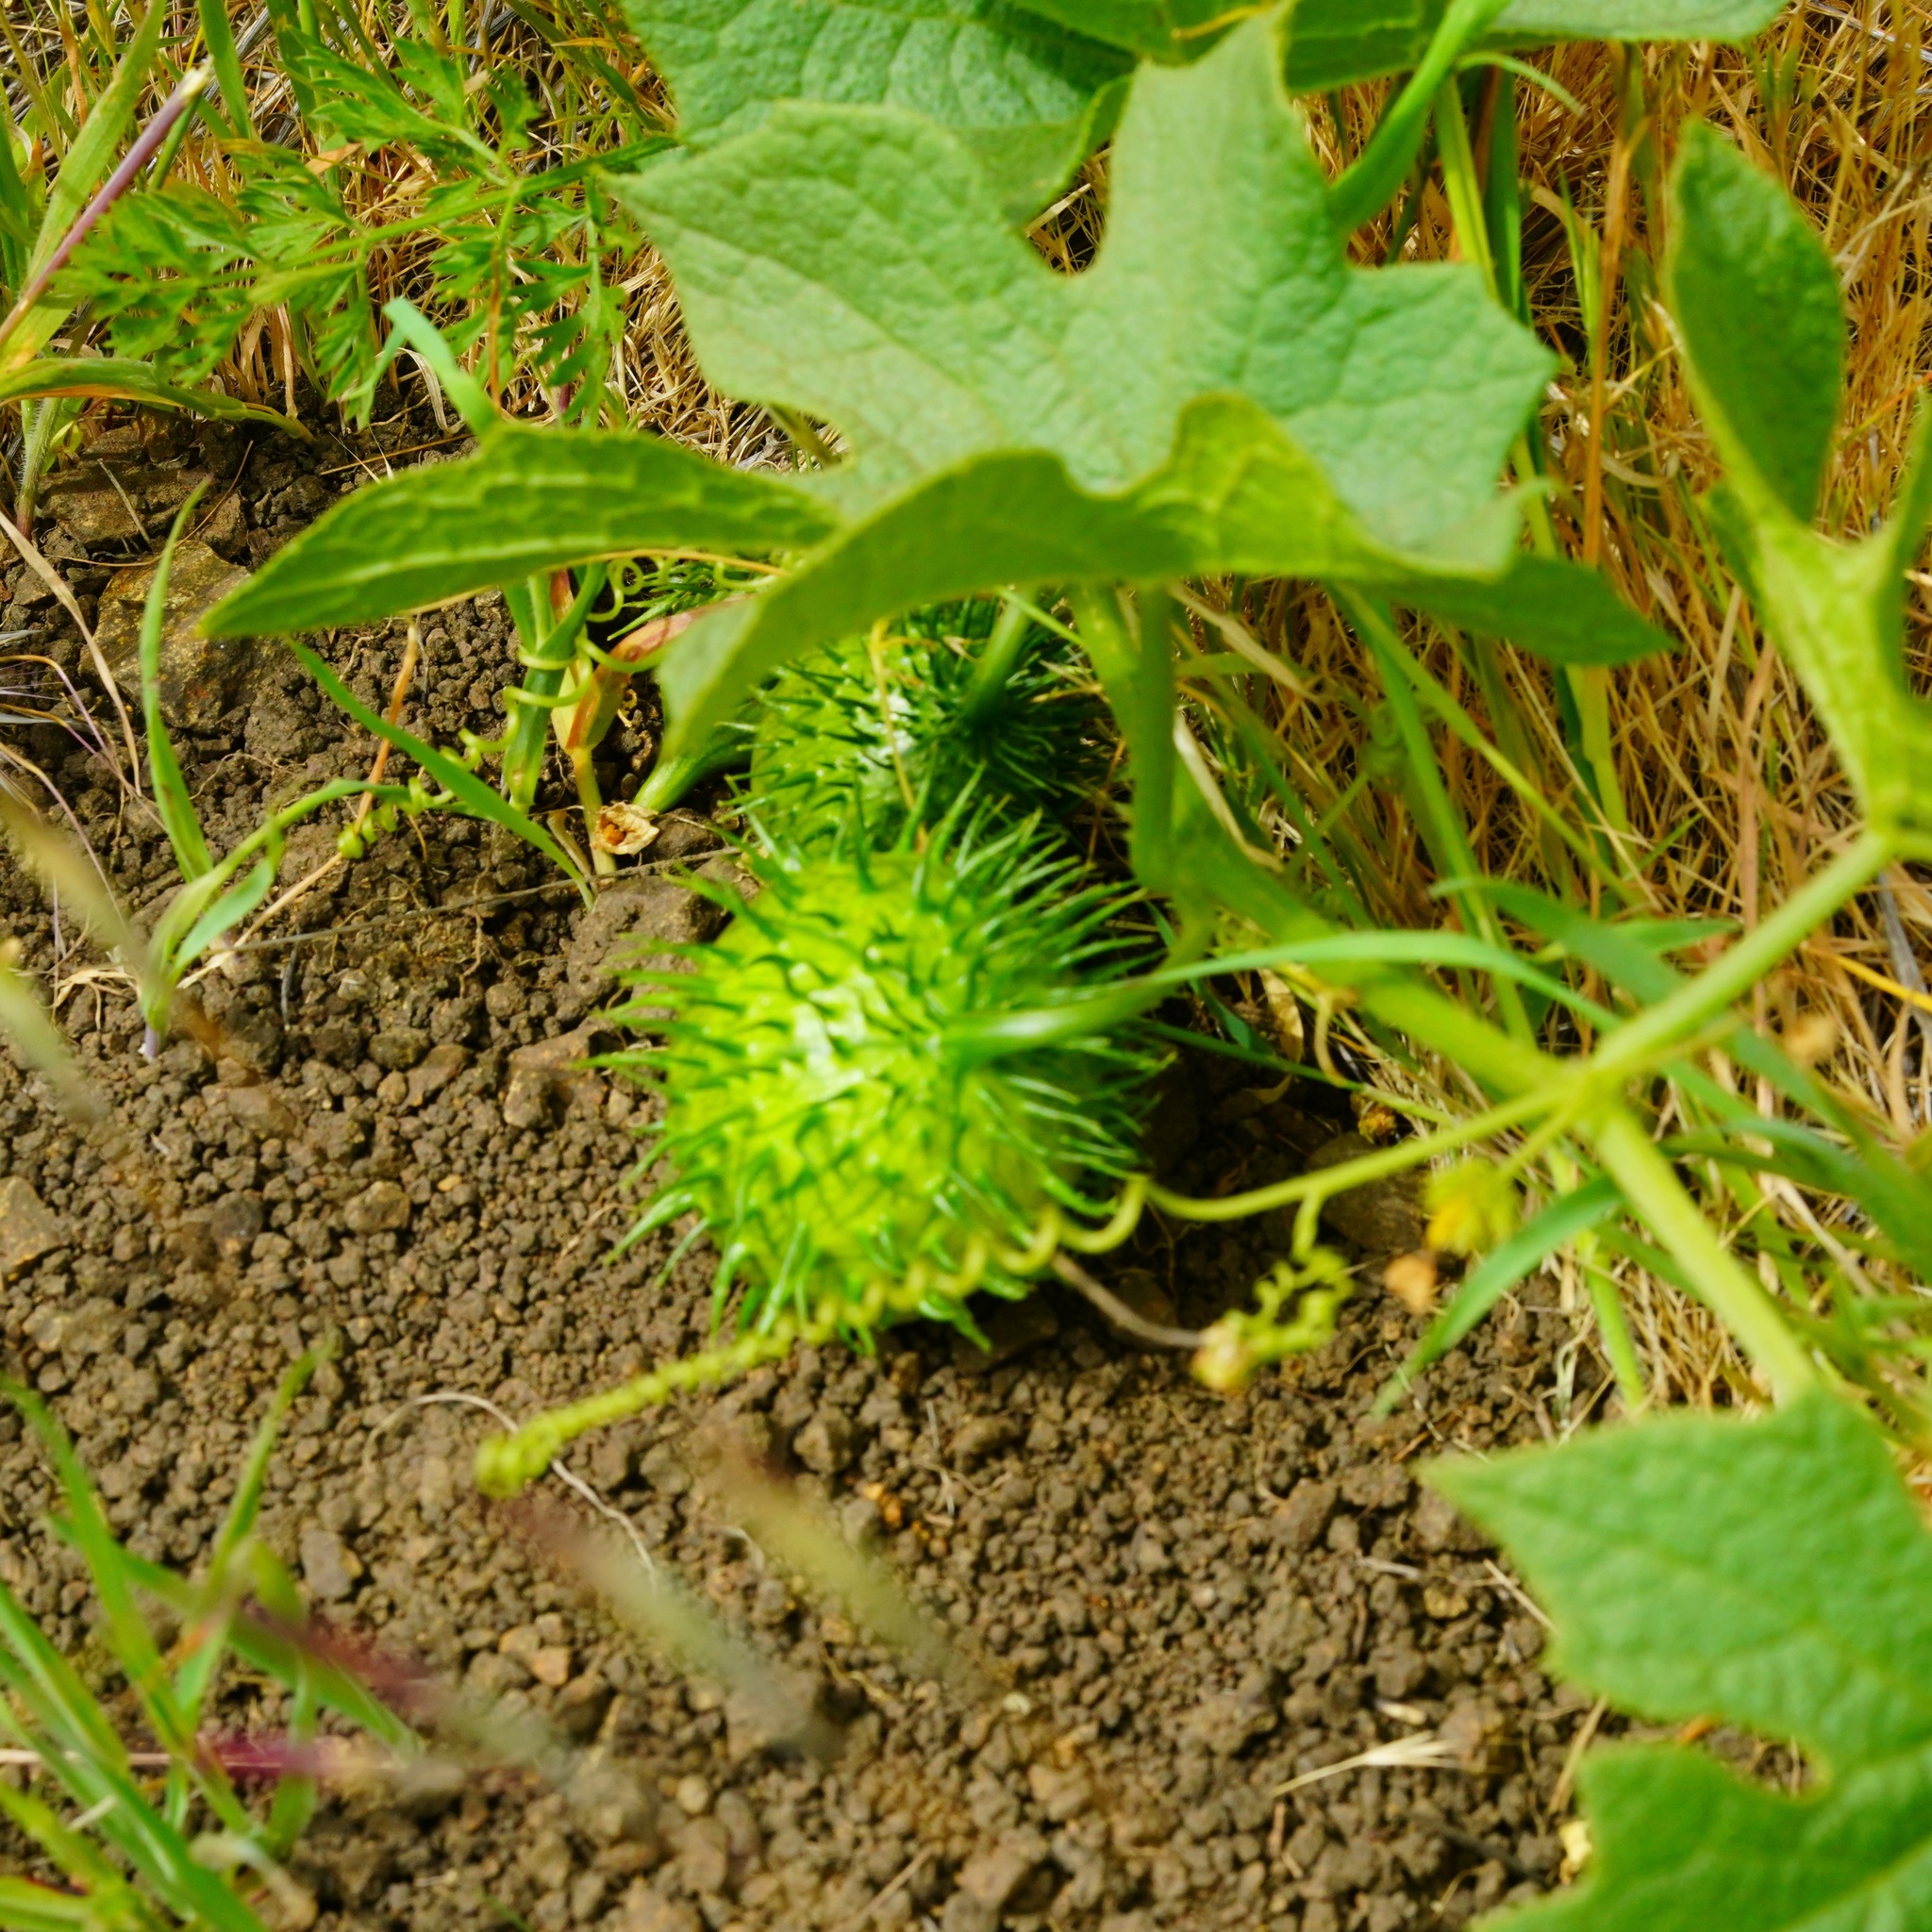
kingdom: Plantae
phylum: Tracheophyta
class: Magnoliopsida
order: Cucurbitales
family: Cucurbitaceae
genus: Marah
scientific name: Marah oregana
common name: Coastal manroot
